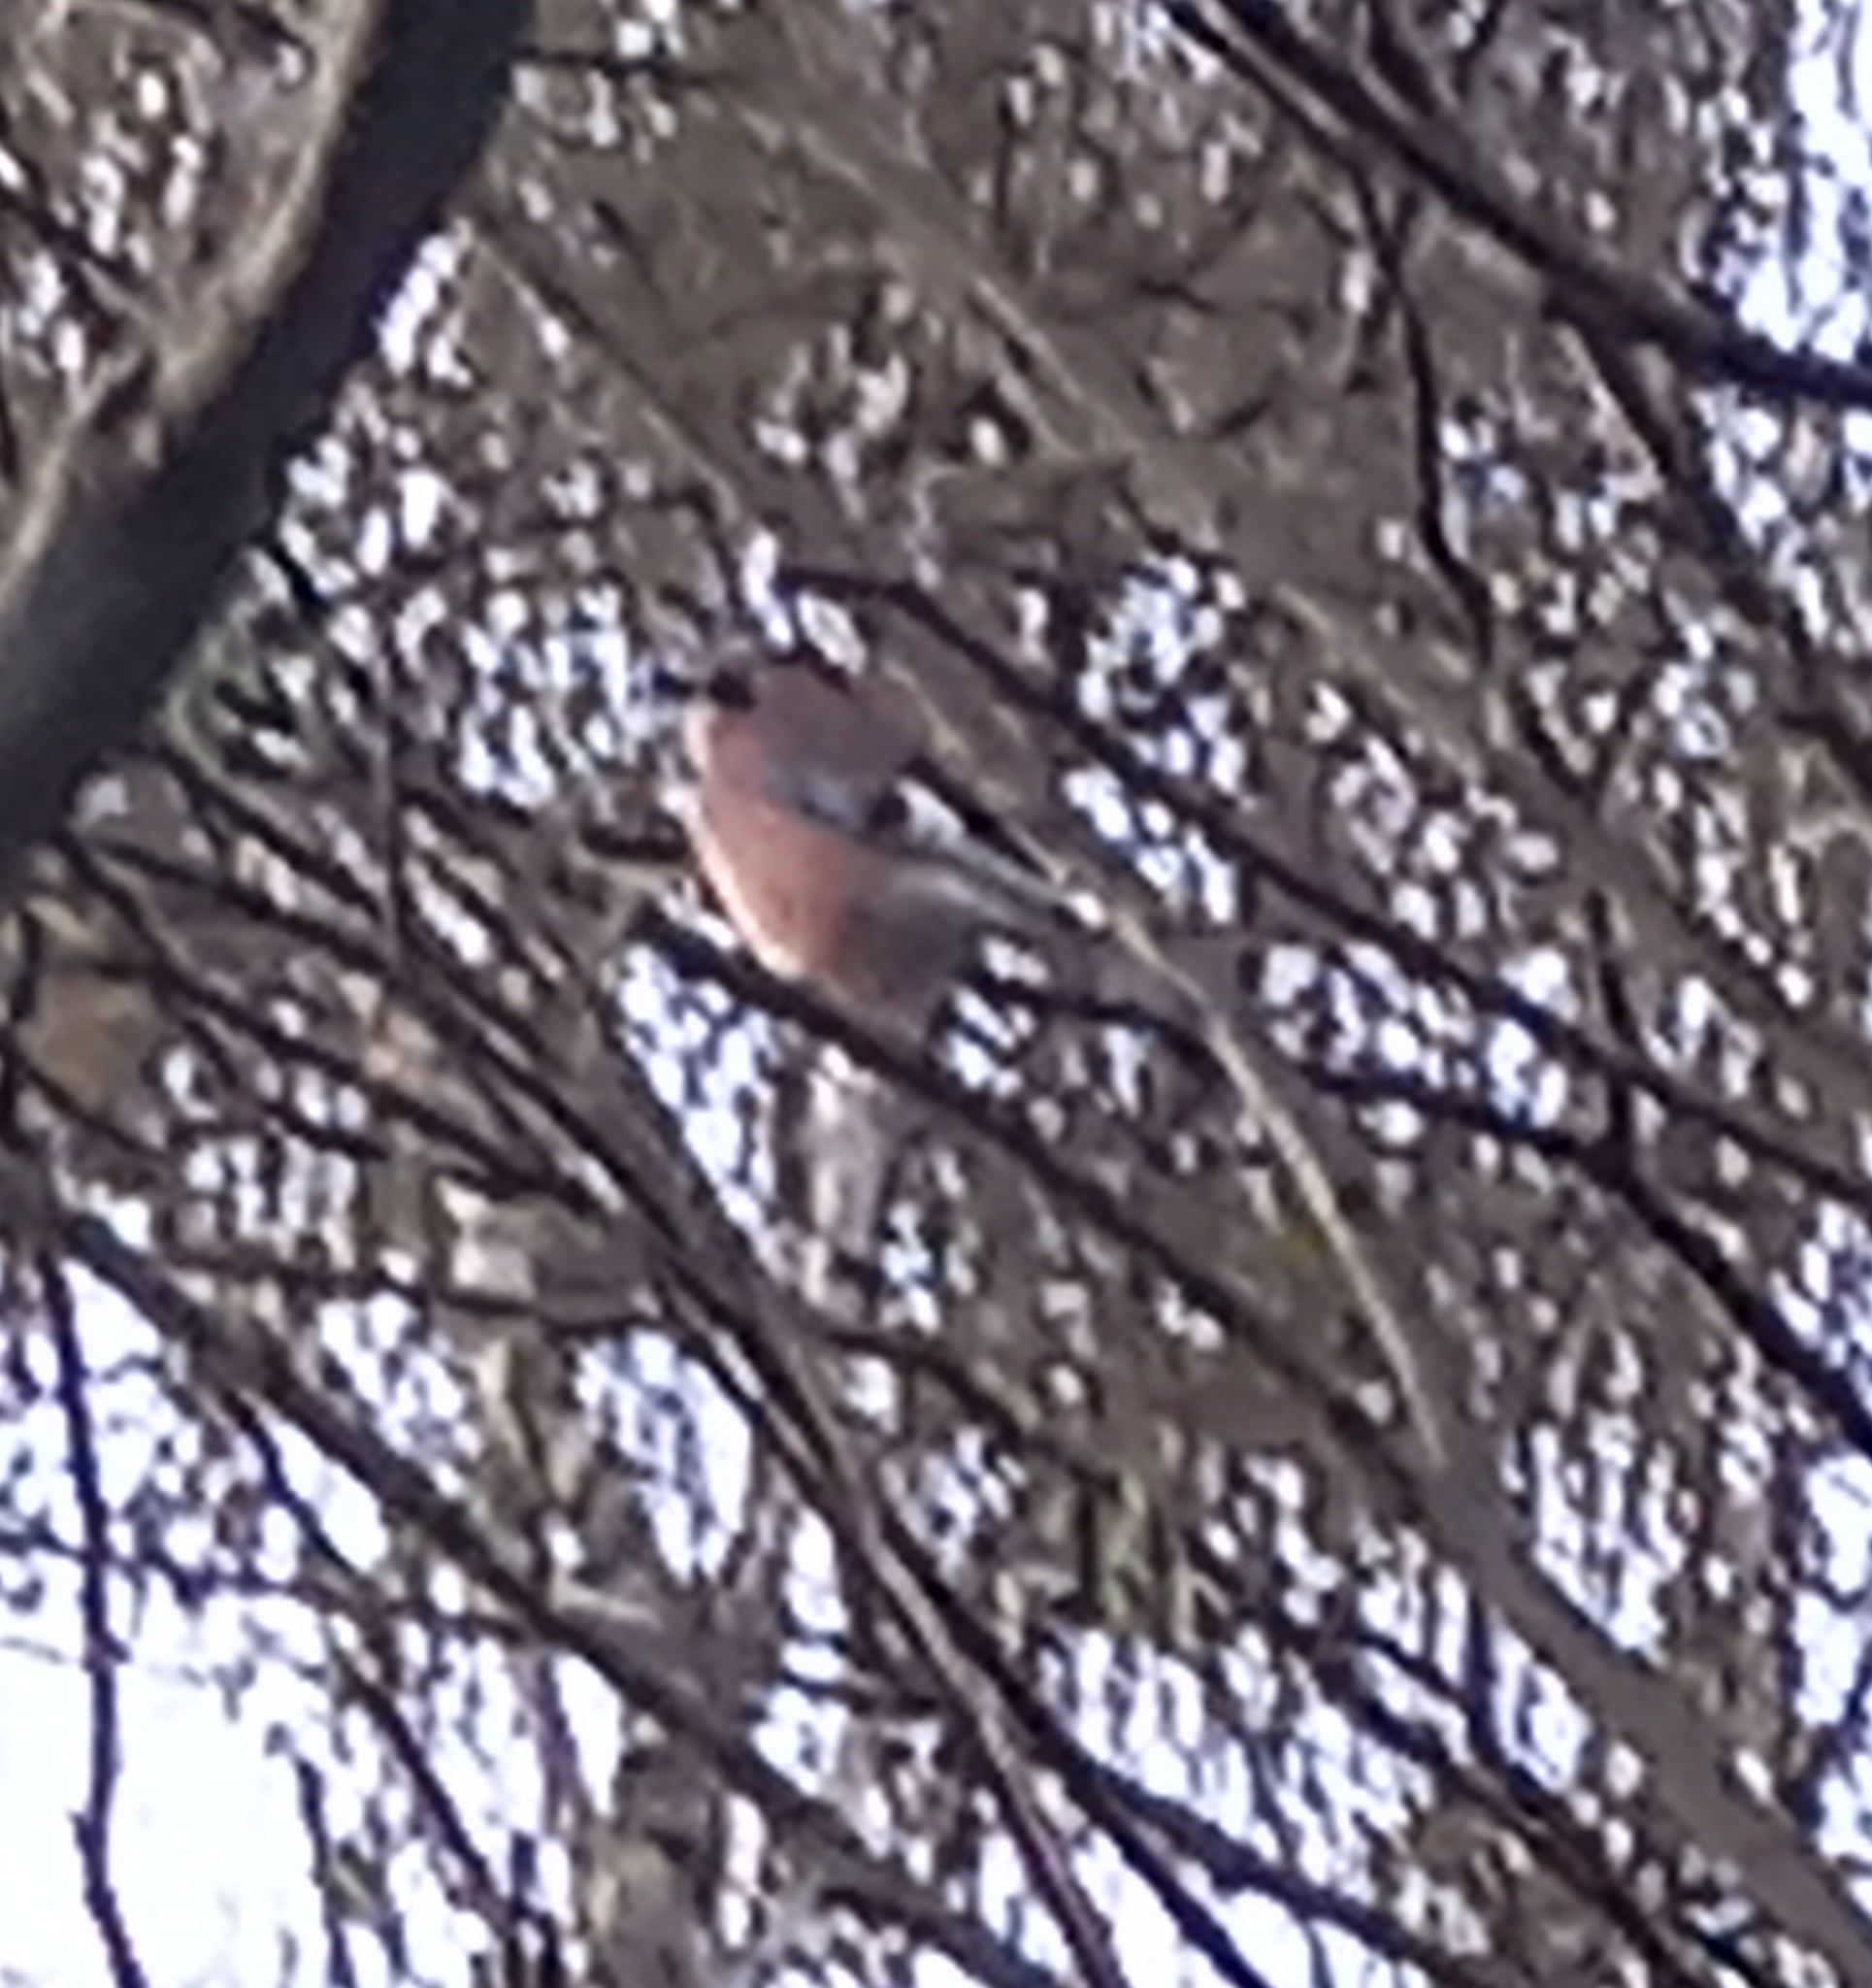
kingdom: Animalia
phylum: Chordata
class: Aves
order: Passeriformes
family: Corvidae
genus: Garrulus
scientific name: Garrulus glandarius
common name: Eurasian jay
